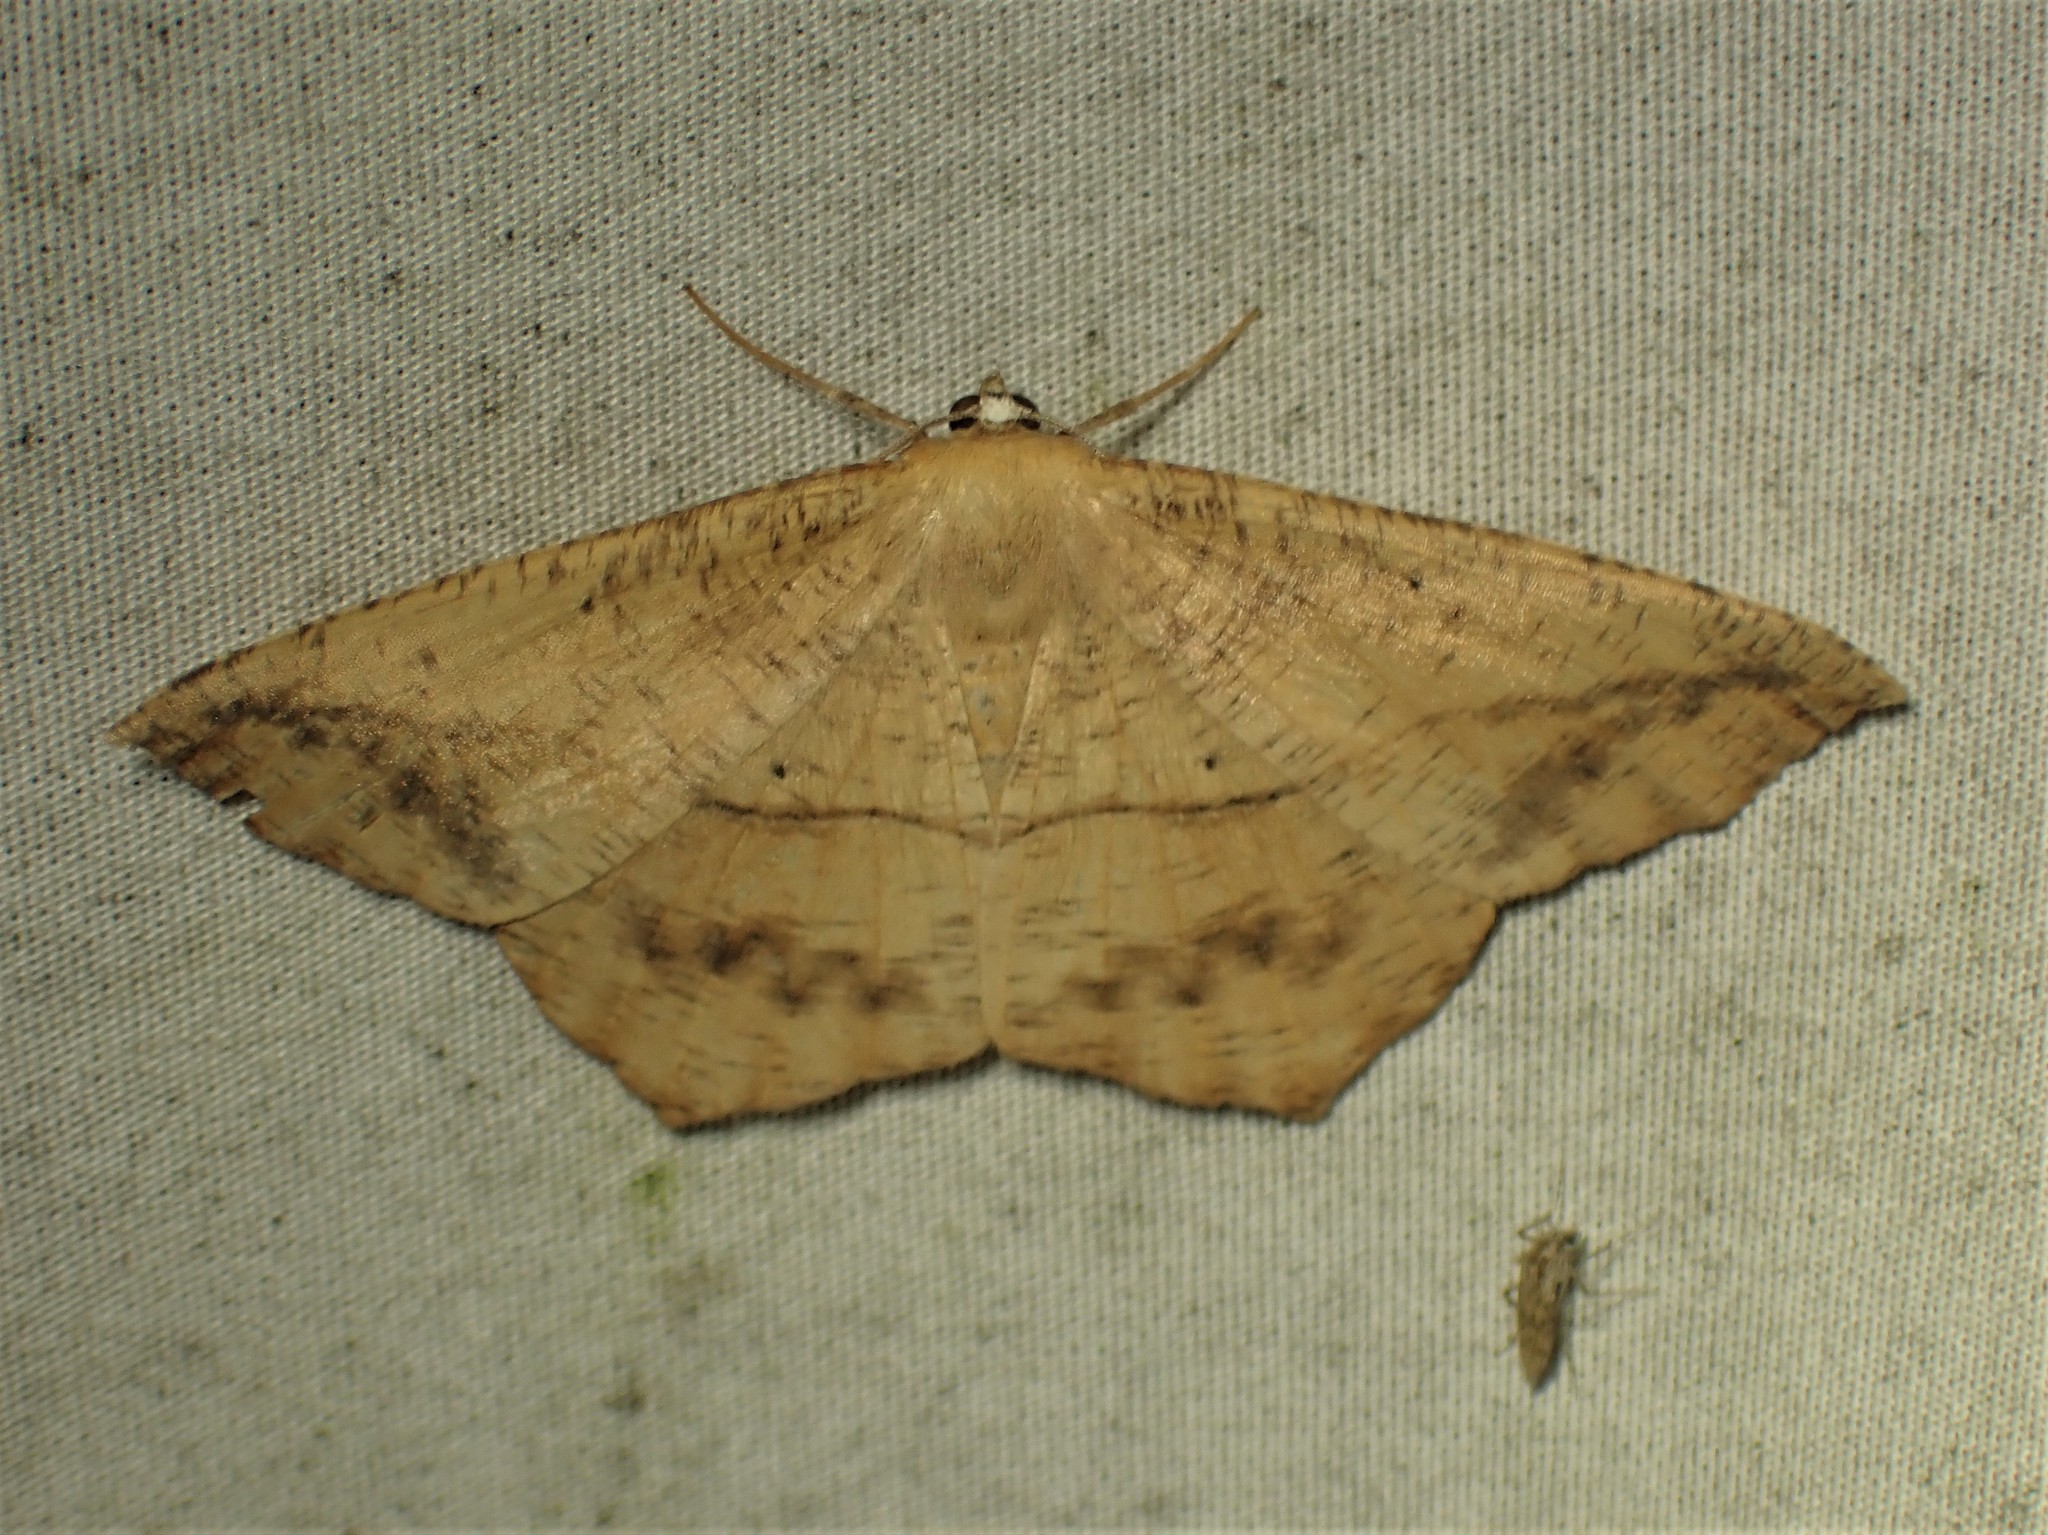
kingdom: Animalia
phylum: Arthropoda
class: Insecta
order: Lepidoptera
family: Geometridae
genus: Prochoerodes
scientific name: Prochoerodes lineola
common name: Large maple spanworm
